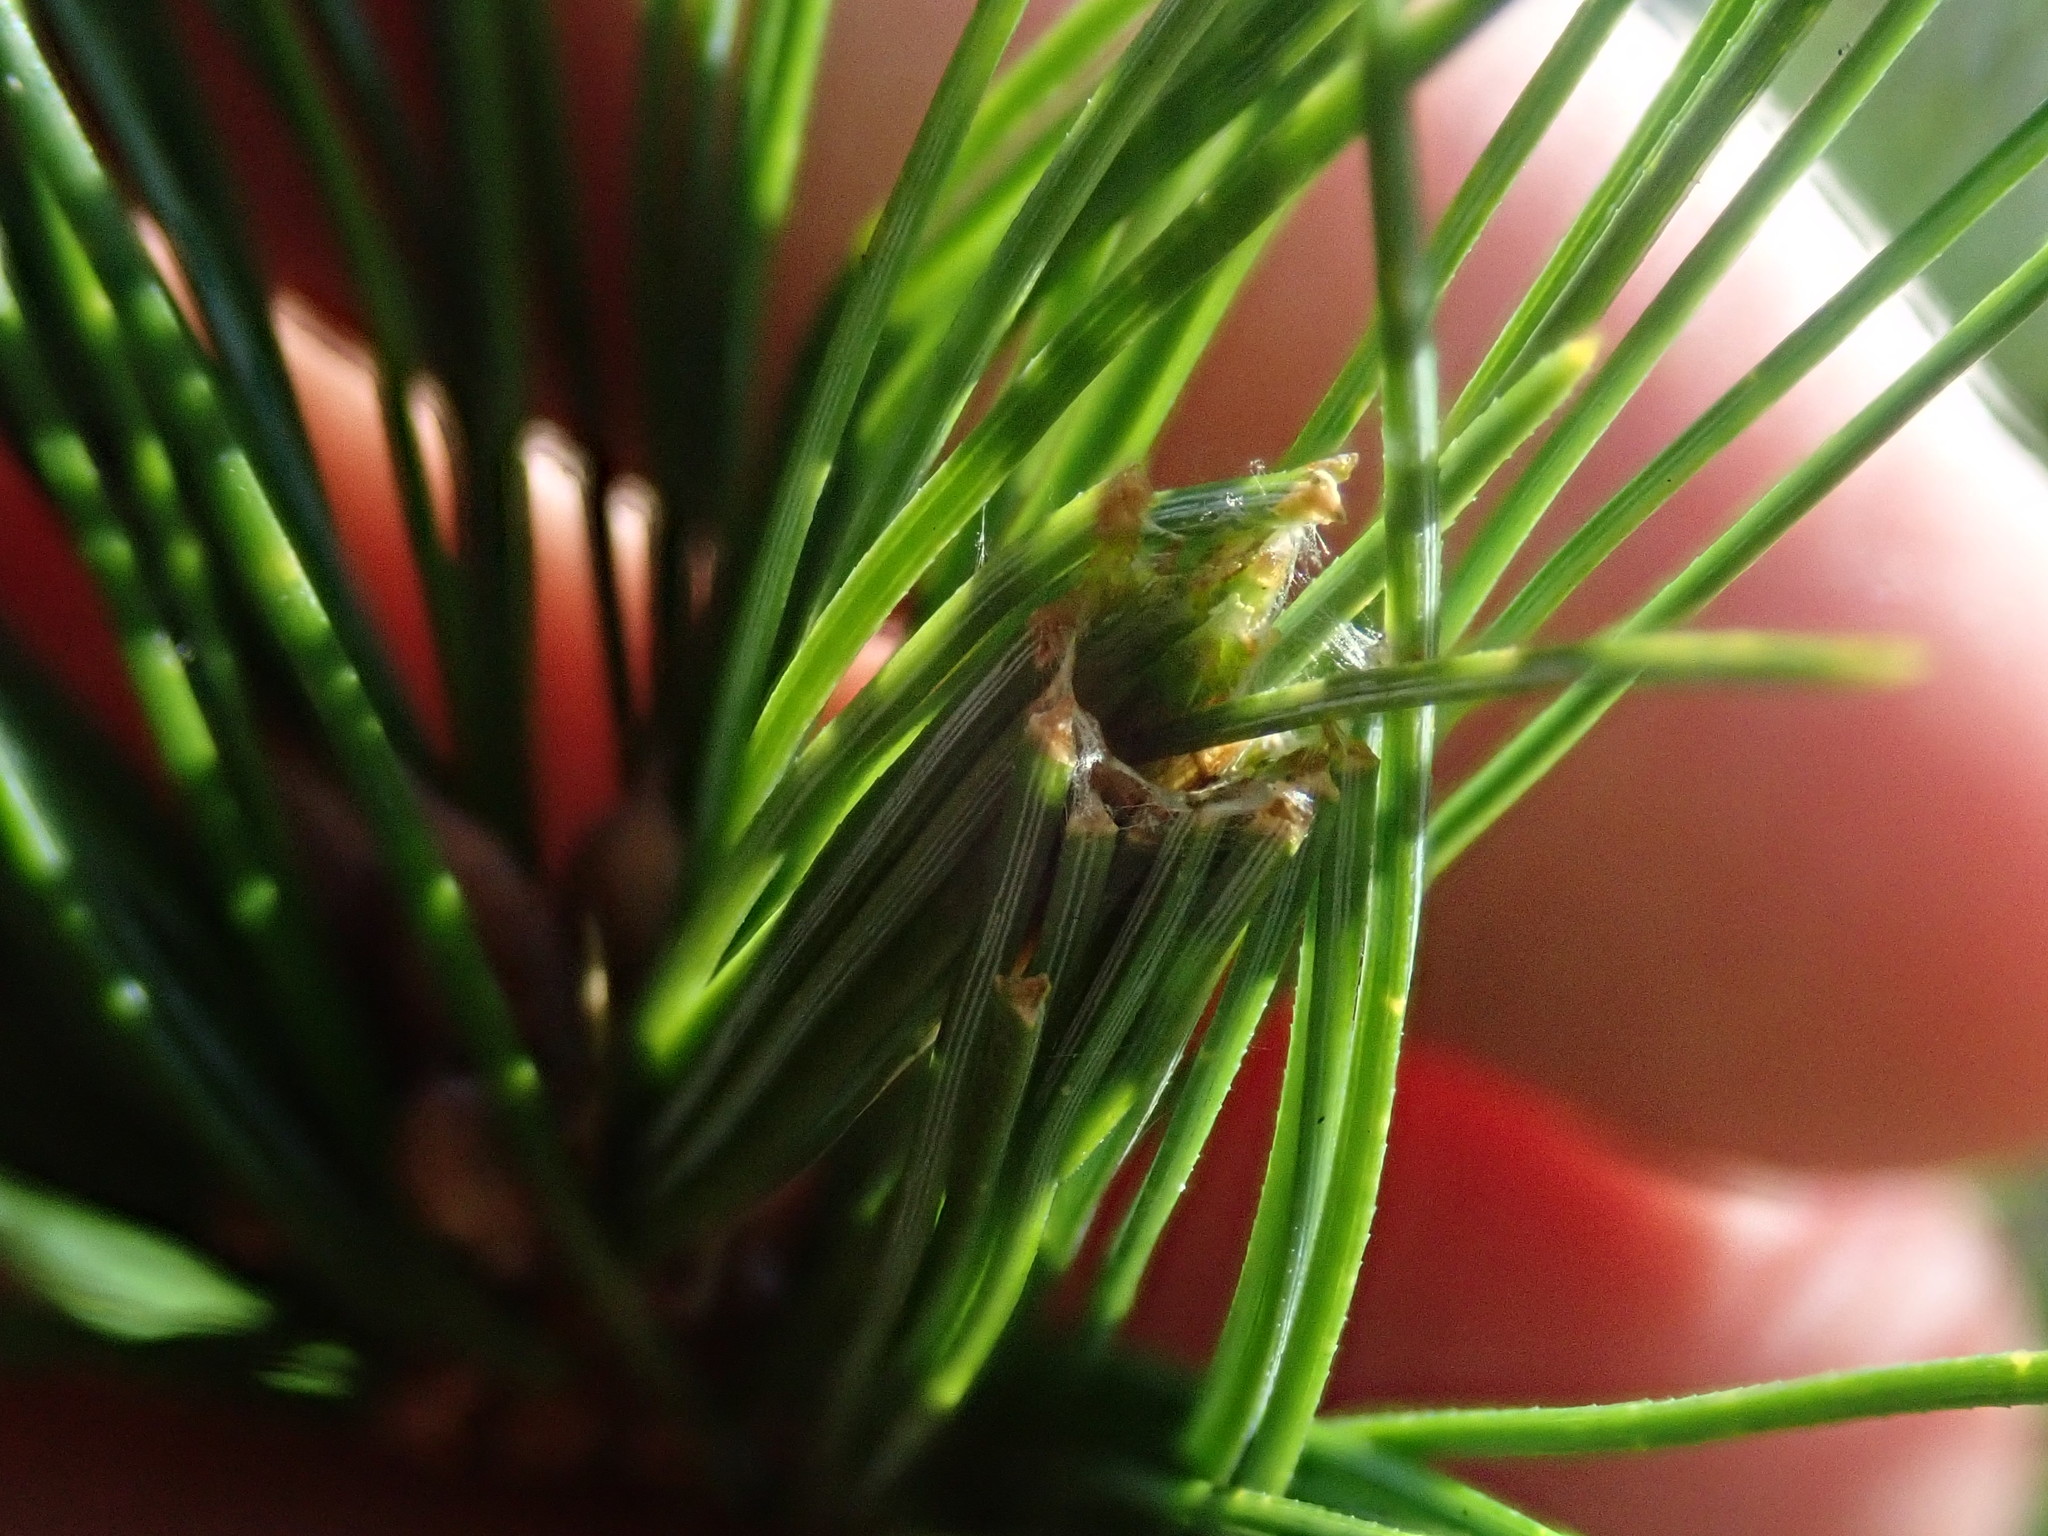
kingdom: Animalia
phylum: Arthropoda
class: Insecta
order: Lepidoptera
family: Tortricidae
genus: Argyrotaenia
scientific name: Argyrotaenia pinatubana
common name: Pine tube moth
